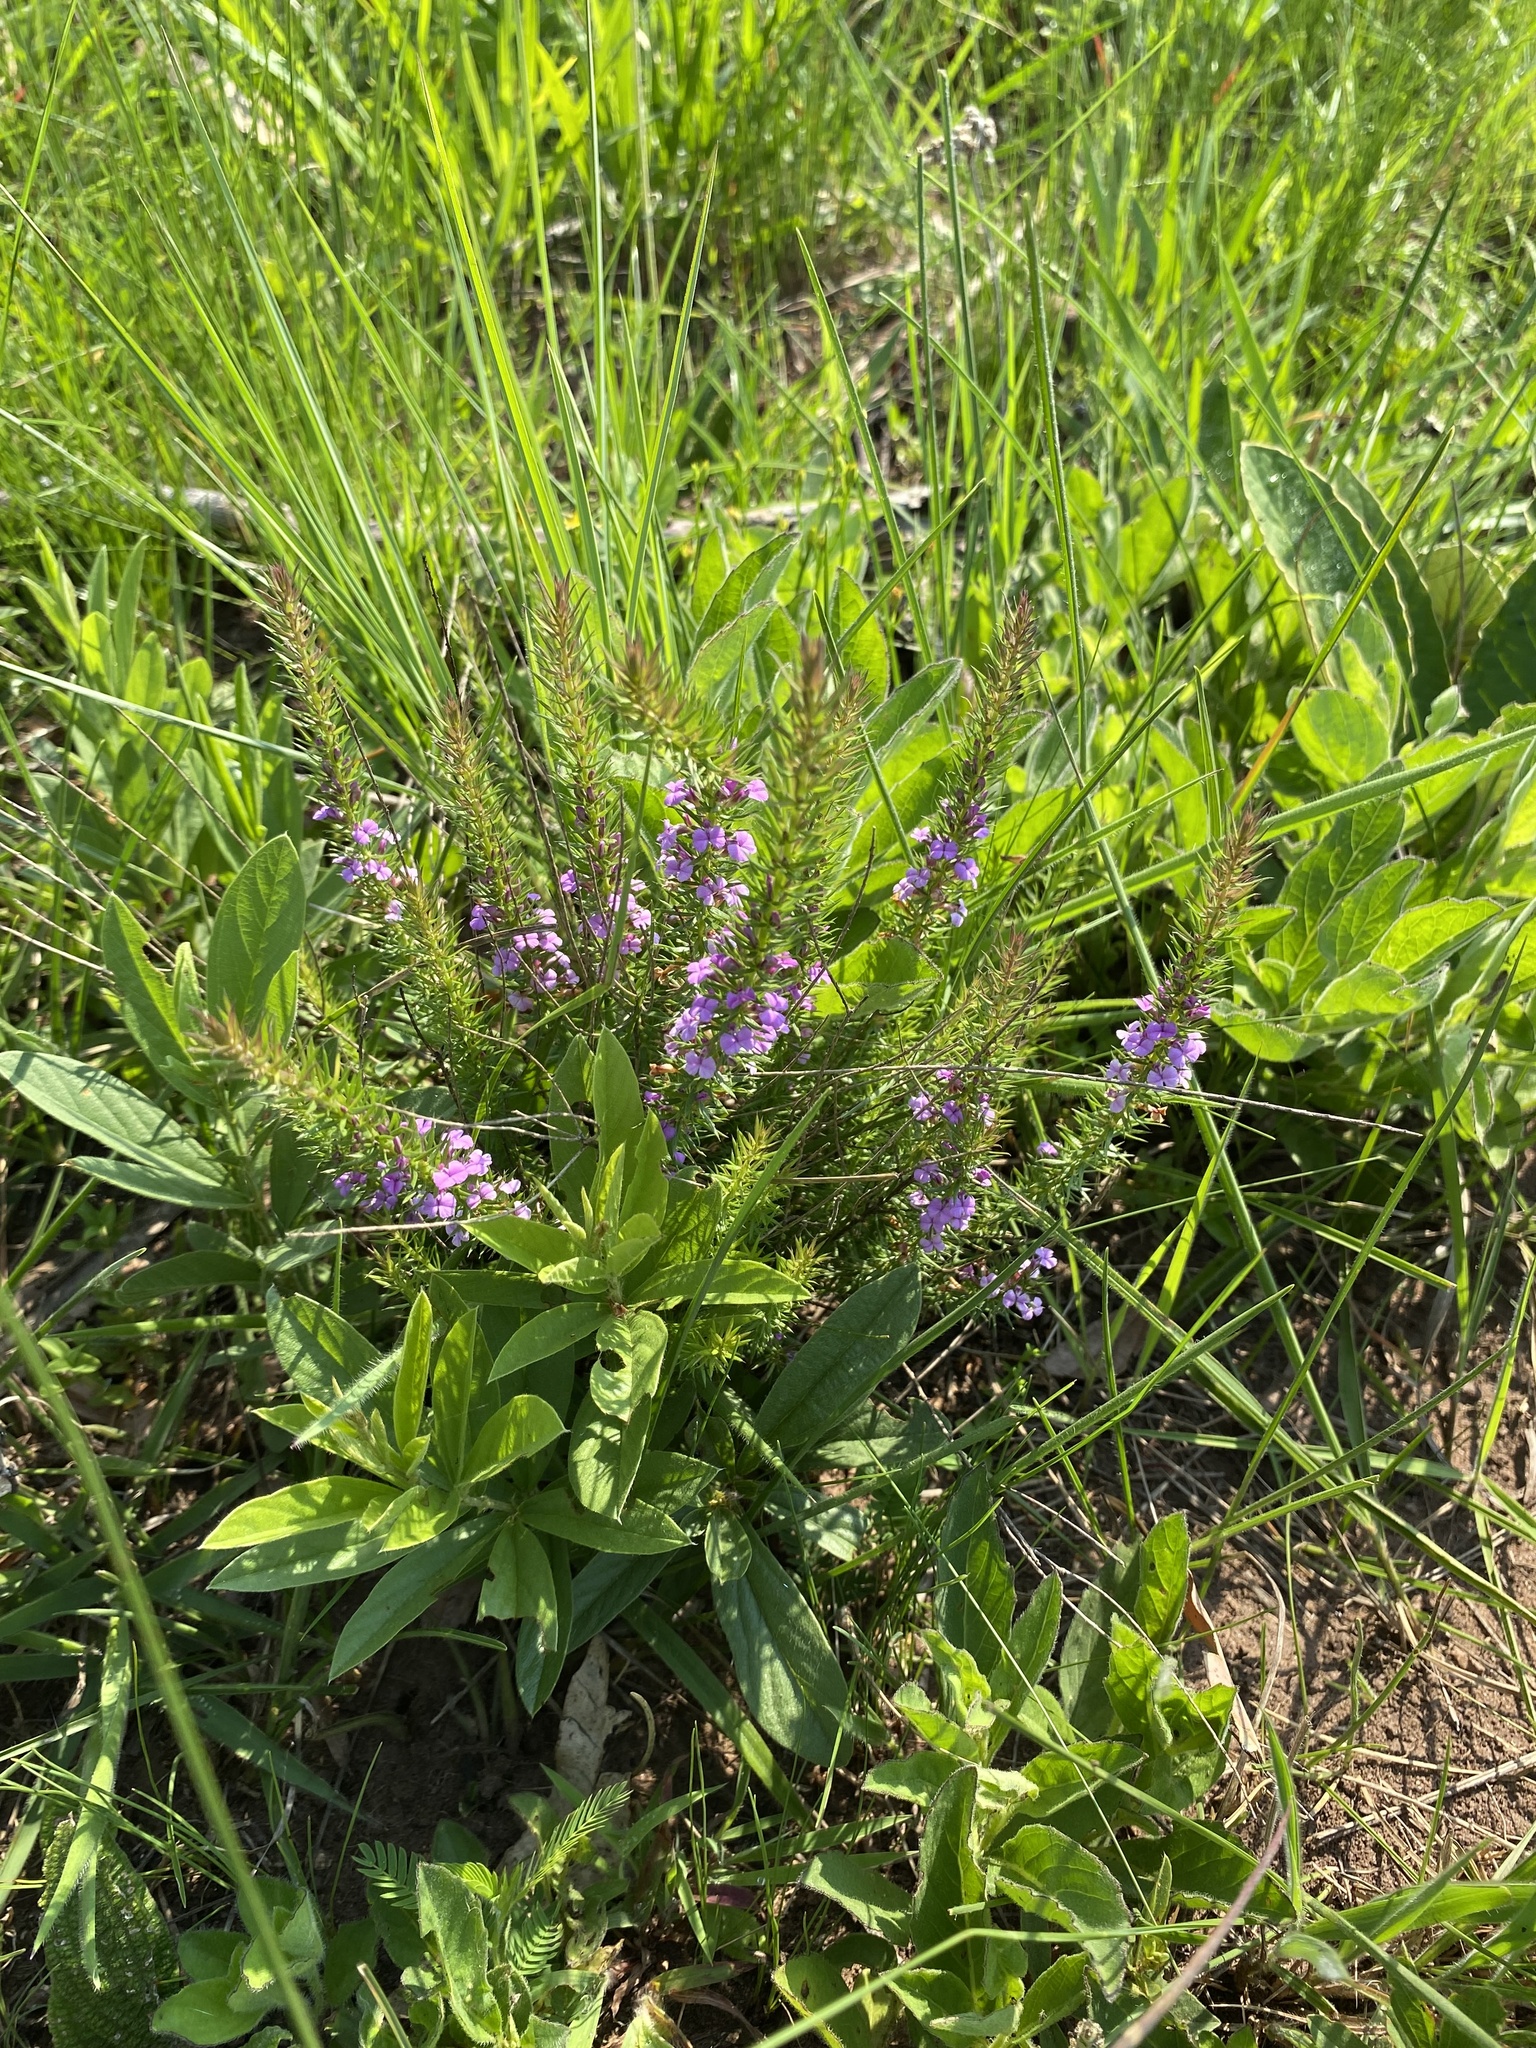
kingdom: Plantae
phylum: Tracheophyta
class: Magnoliopsida
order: Fabales
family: Polygalaceae
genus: Muraltia
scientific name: Muraltia lancifolia
